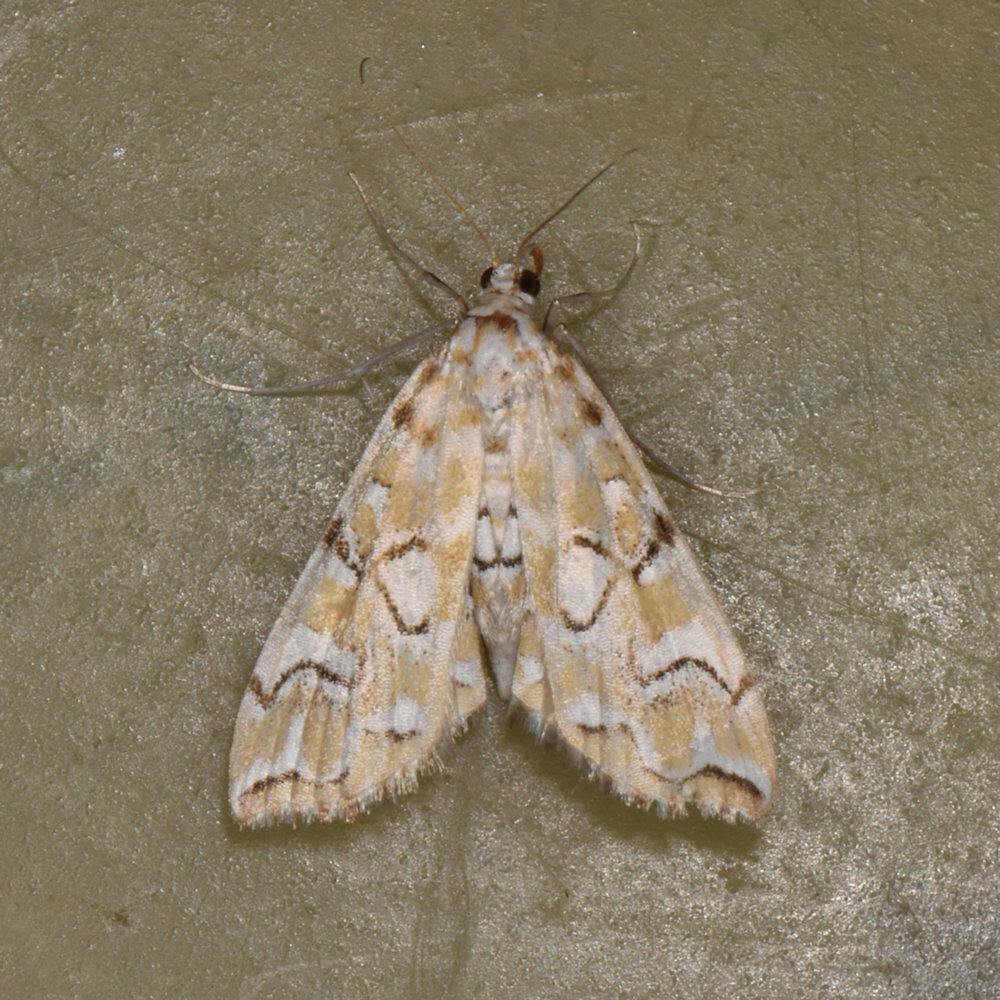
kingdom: Animalia
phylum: Arthropoda
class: Insecta
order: Lepidoptera
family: Crambidae
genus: Elophila
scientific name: Elophila icciusalis
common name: Pondside pyralid moth
